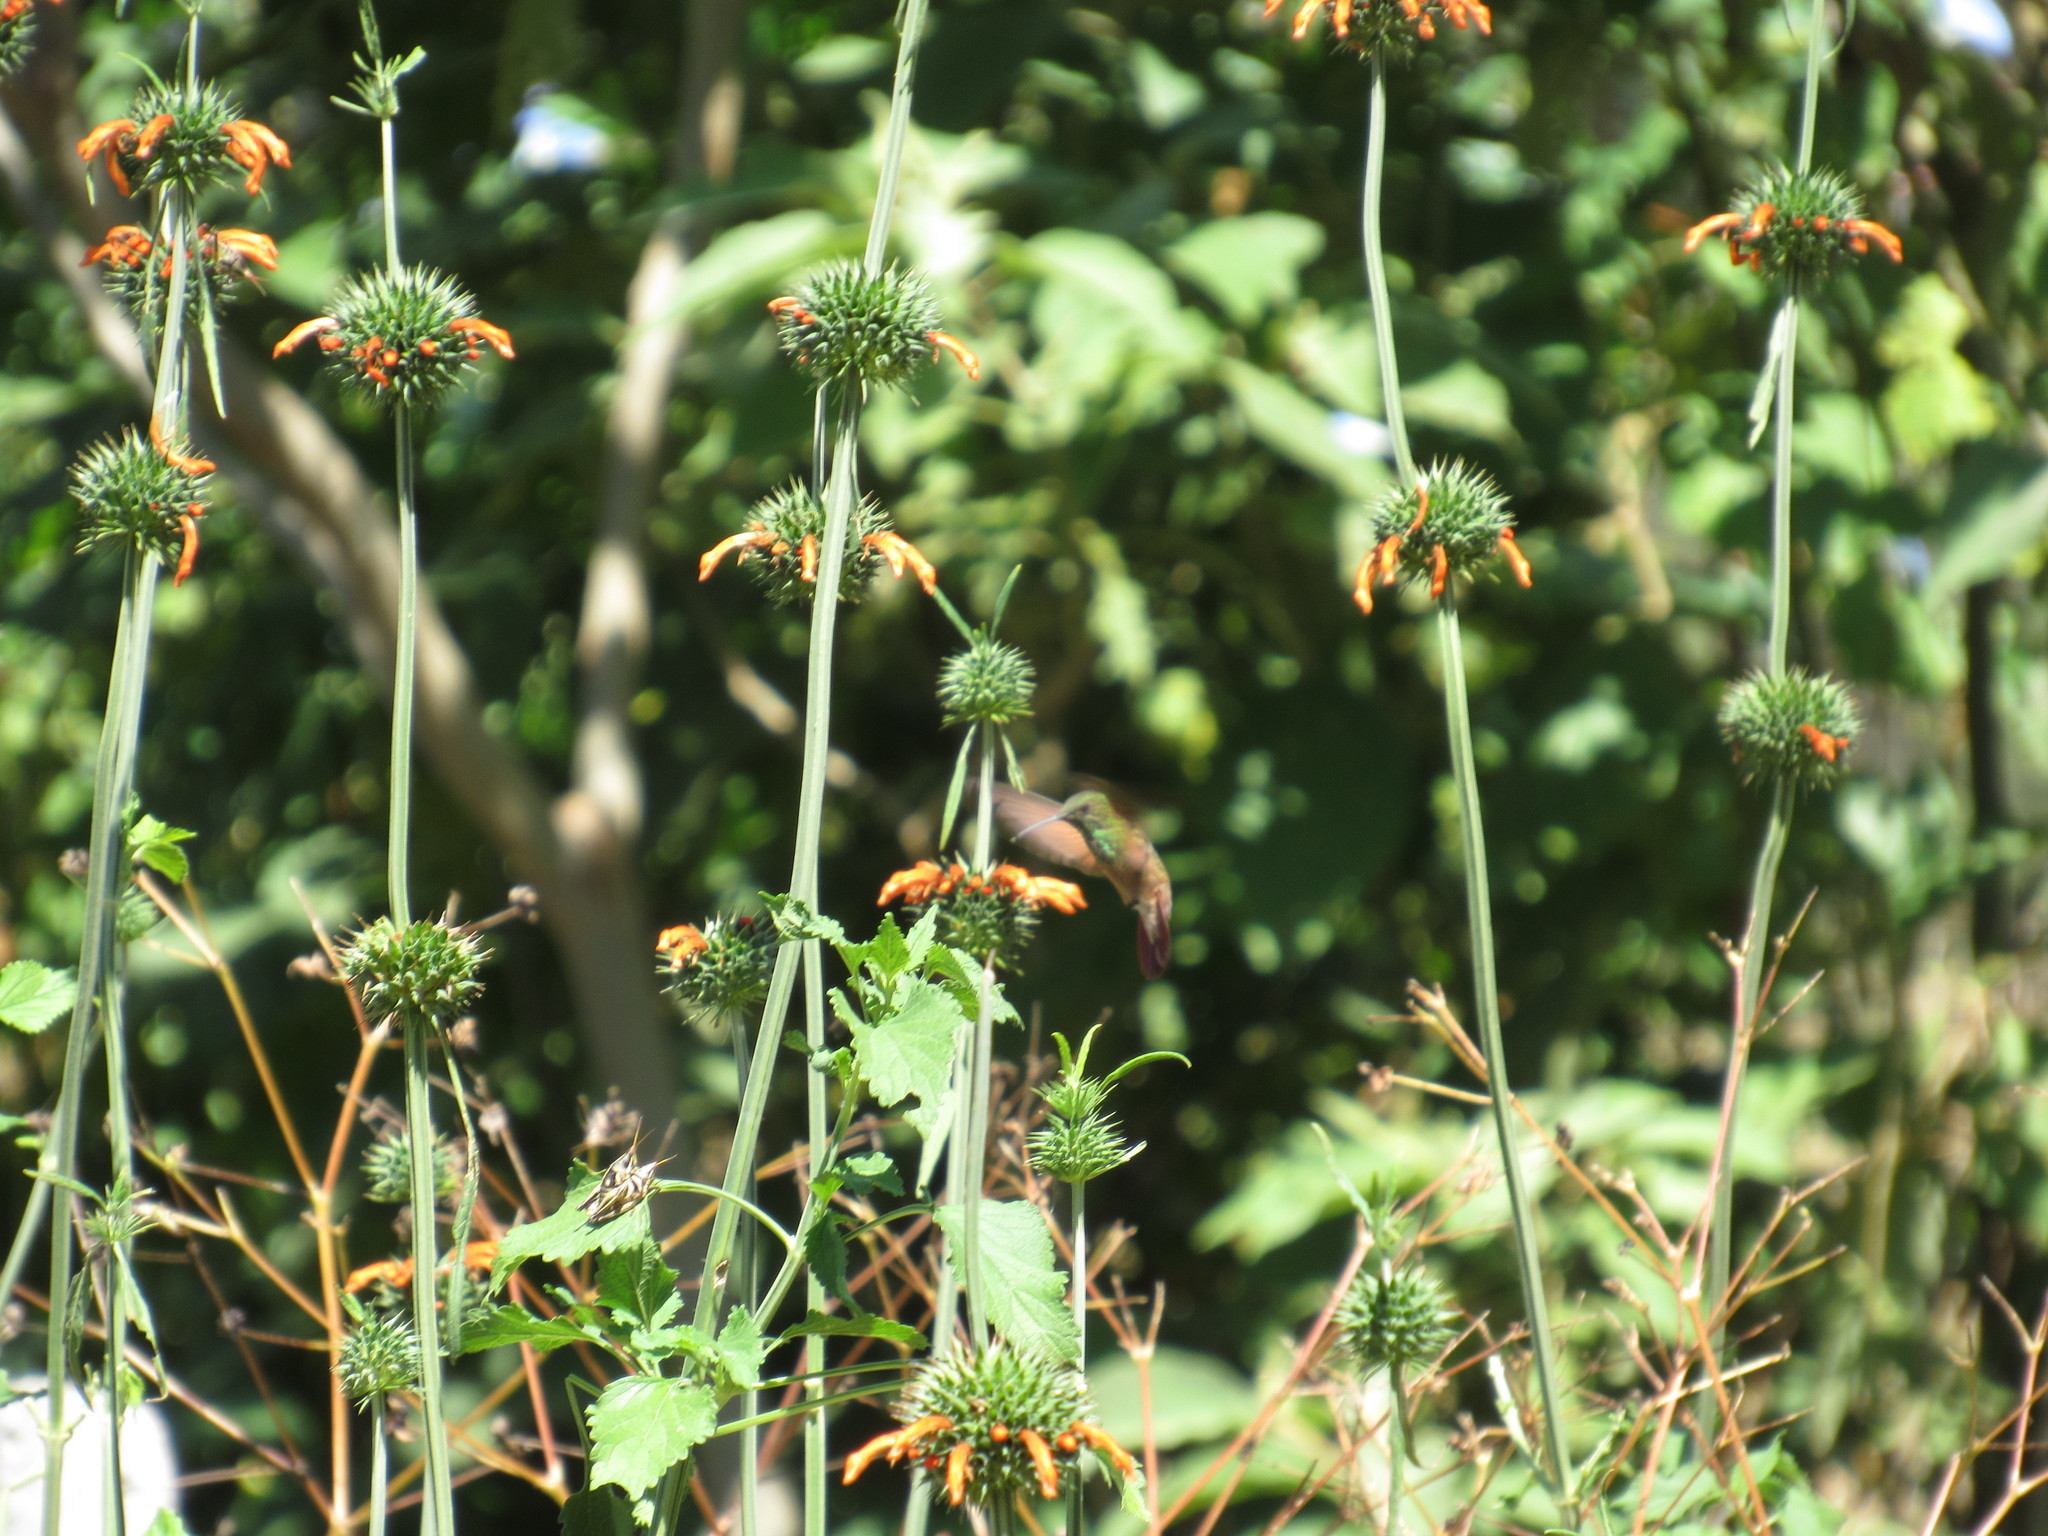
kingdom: Animalia
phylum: Chordata
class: Aves
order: Apodiformes
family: Trochilidae
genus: Saucerottia
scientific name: Saucerottia beryllina
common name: Berylline hummingbird
